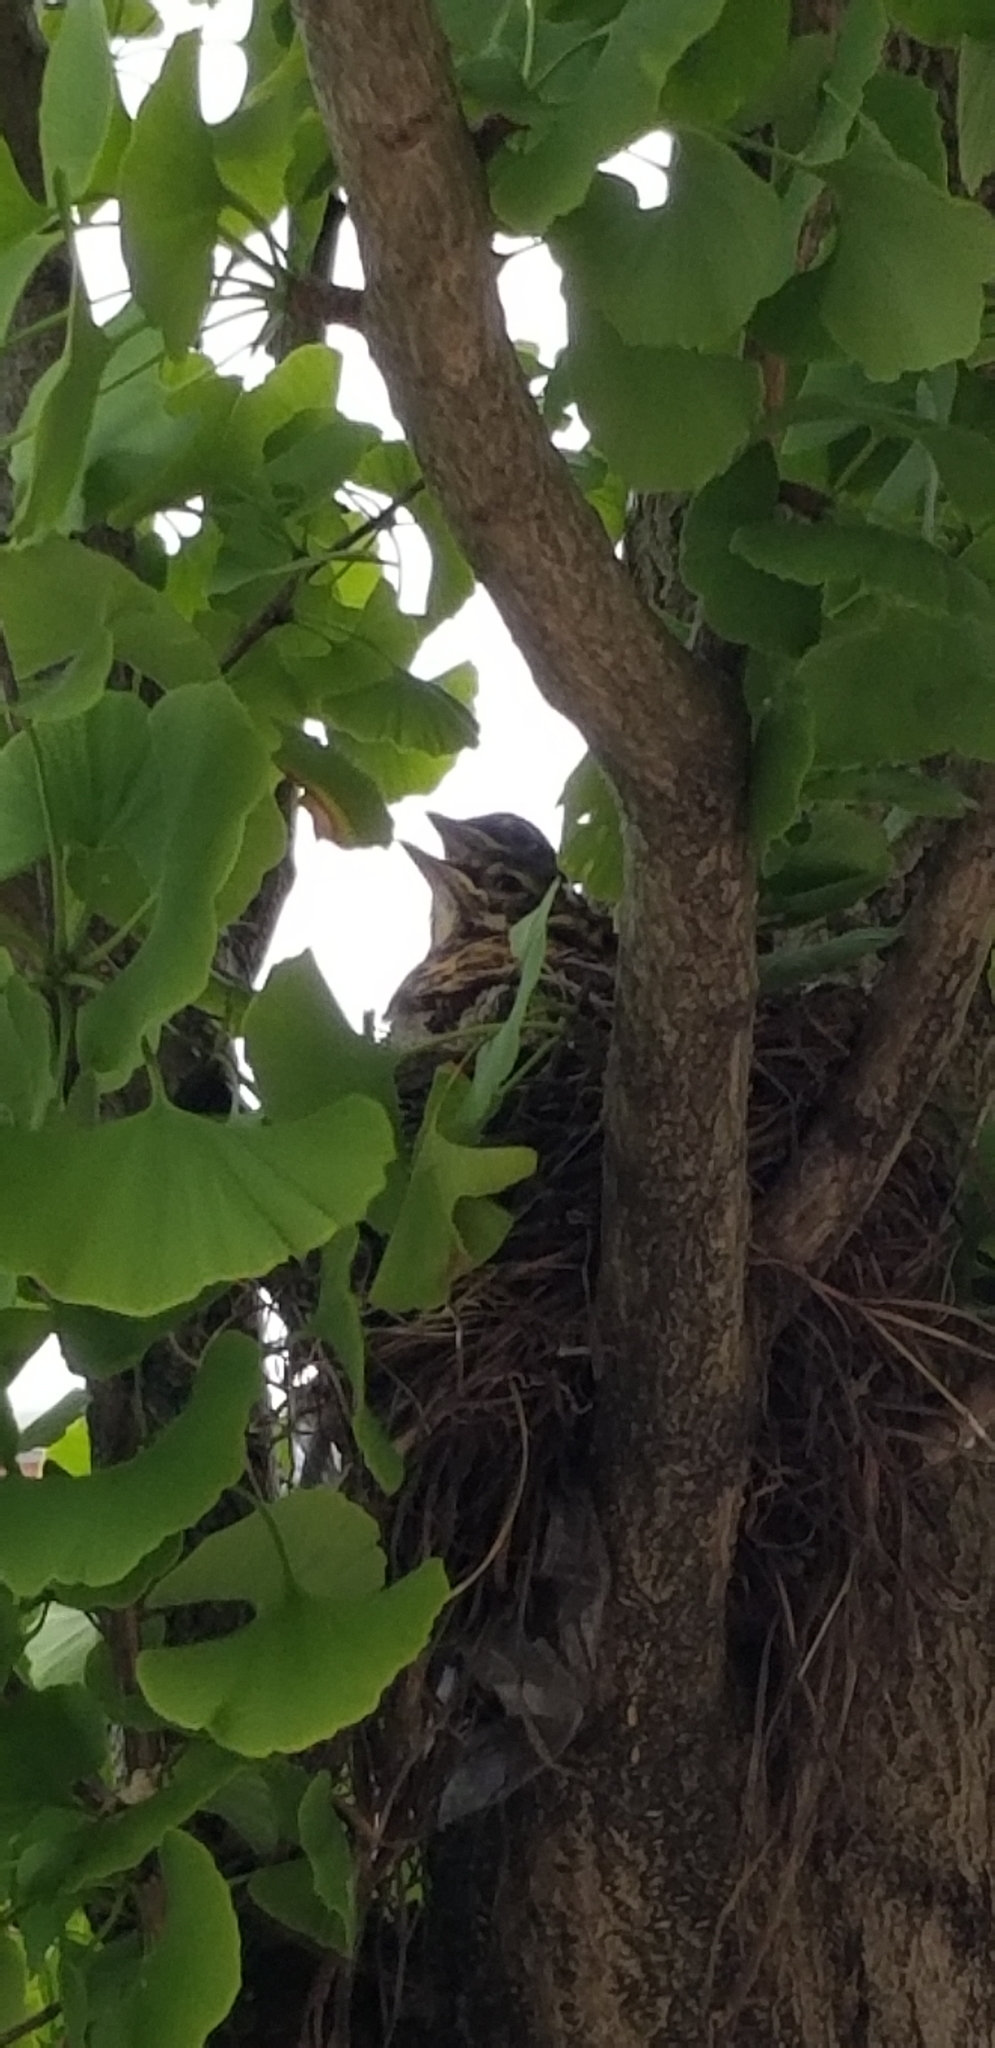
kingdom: Animalia
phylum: Chordata
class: Aves
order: Passeriformes
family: Turdidae
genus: Turdus
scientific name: Turdus migratorius
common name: American robin
